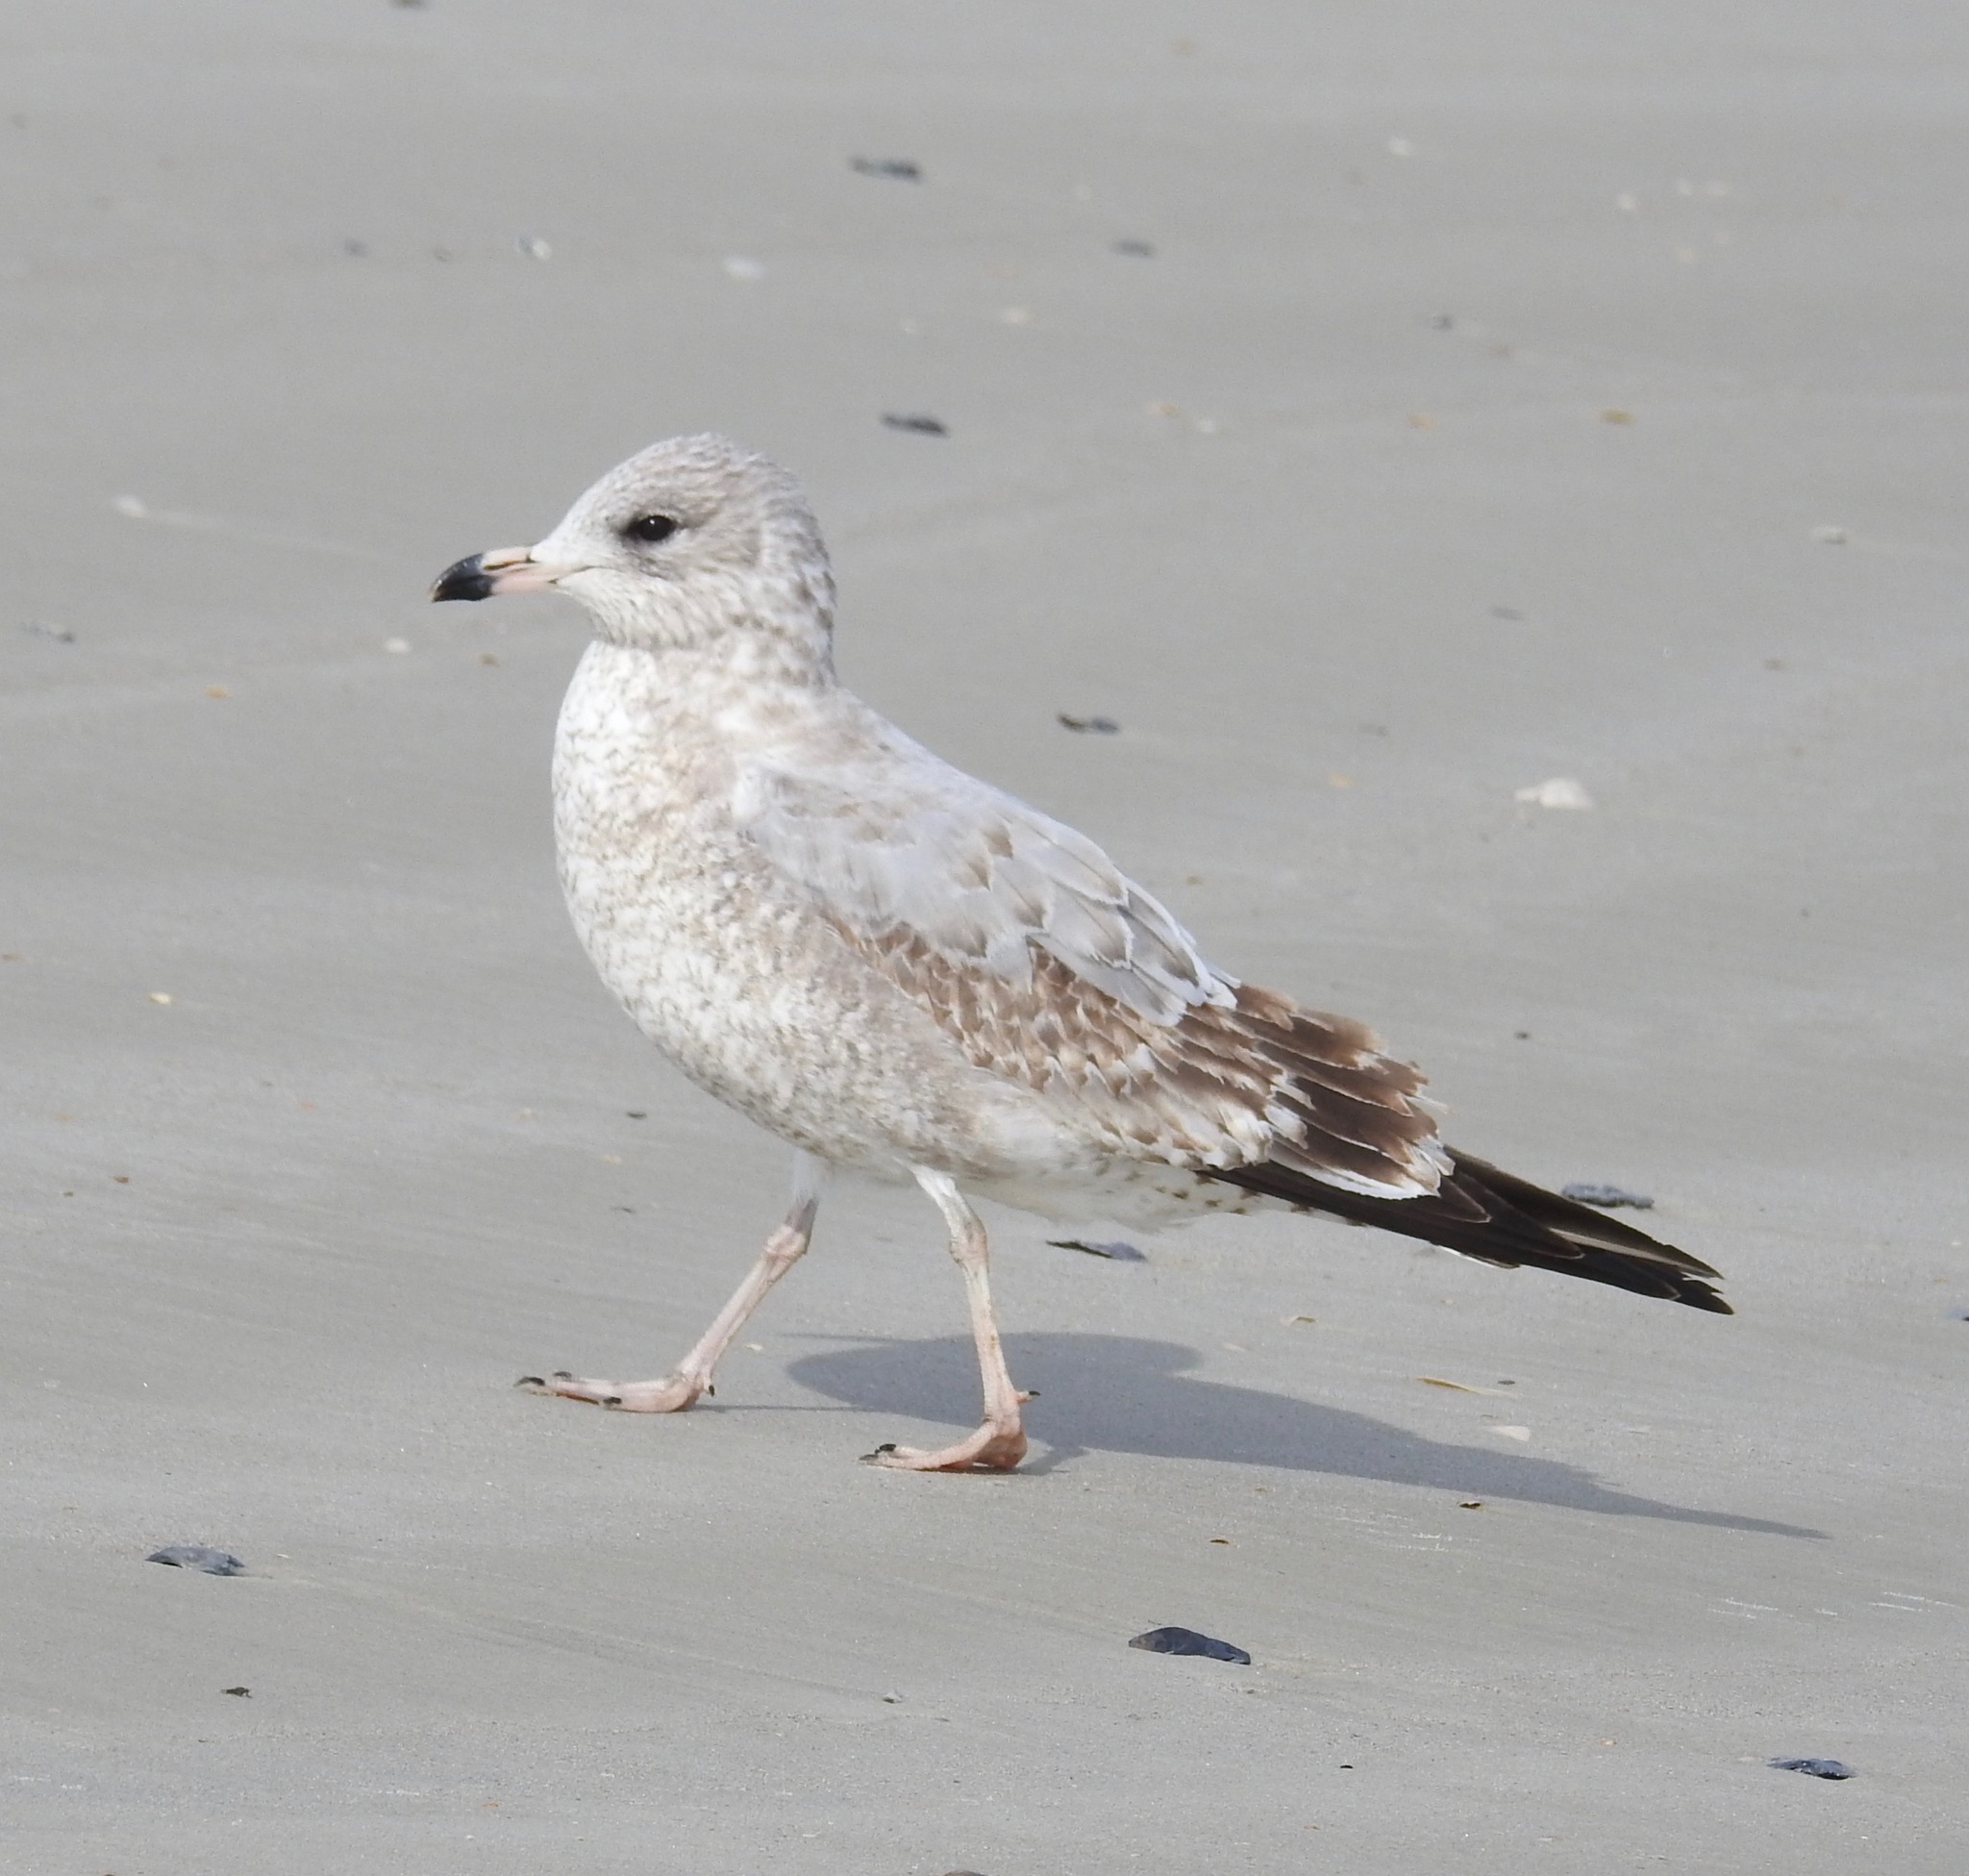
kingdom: Animalia
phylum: Chordata
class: Aves
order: Charadriiformes
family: Laridae
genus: Larus
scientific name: Larus delawarensis
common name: Ring-billed gull
